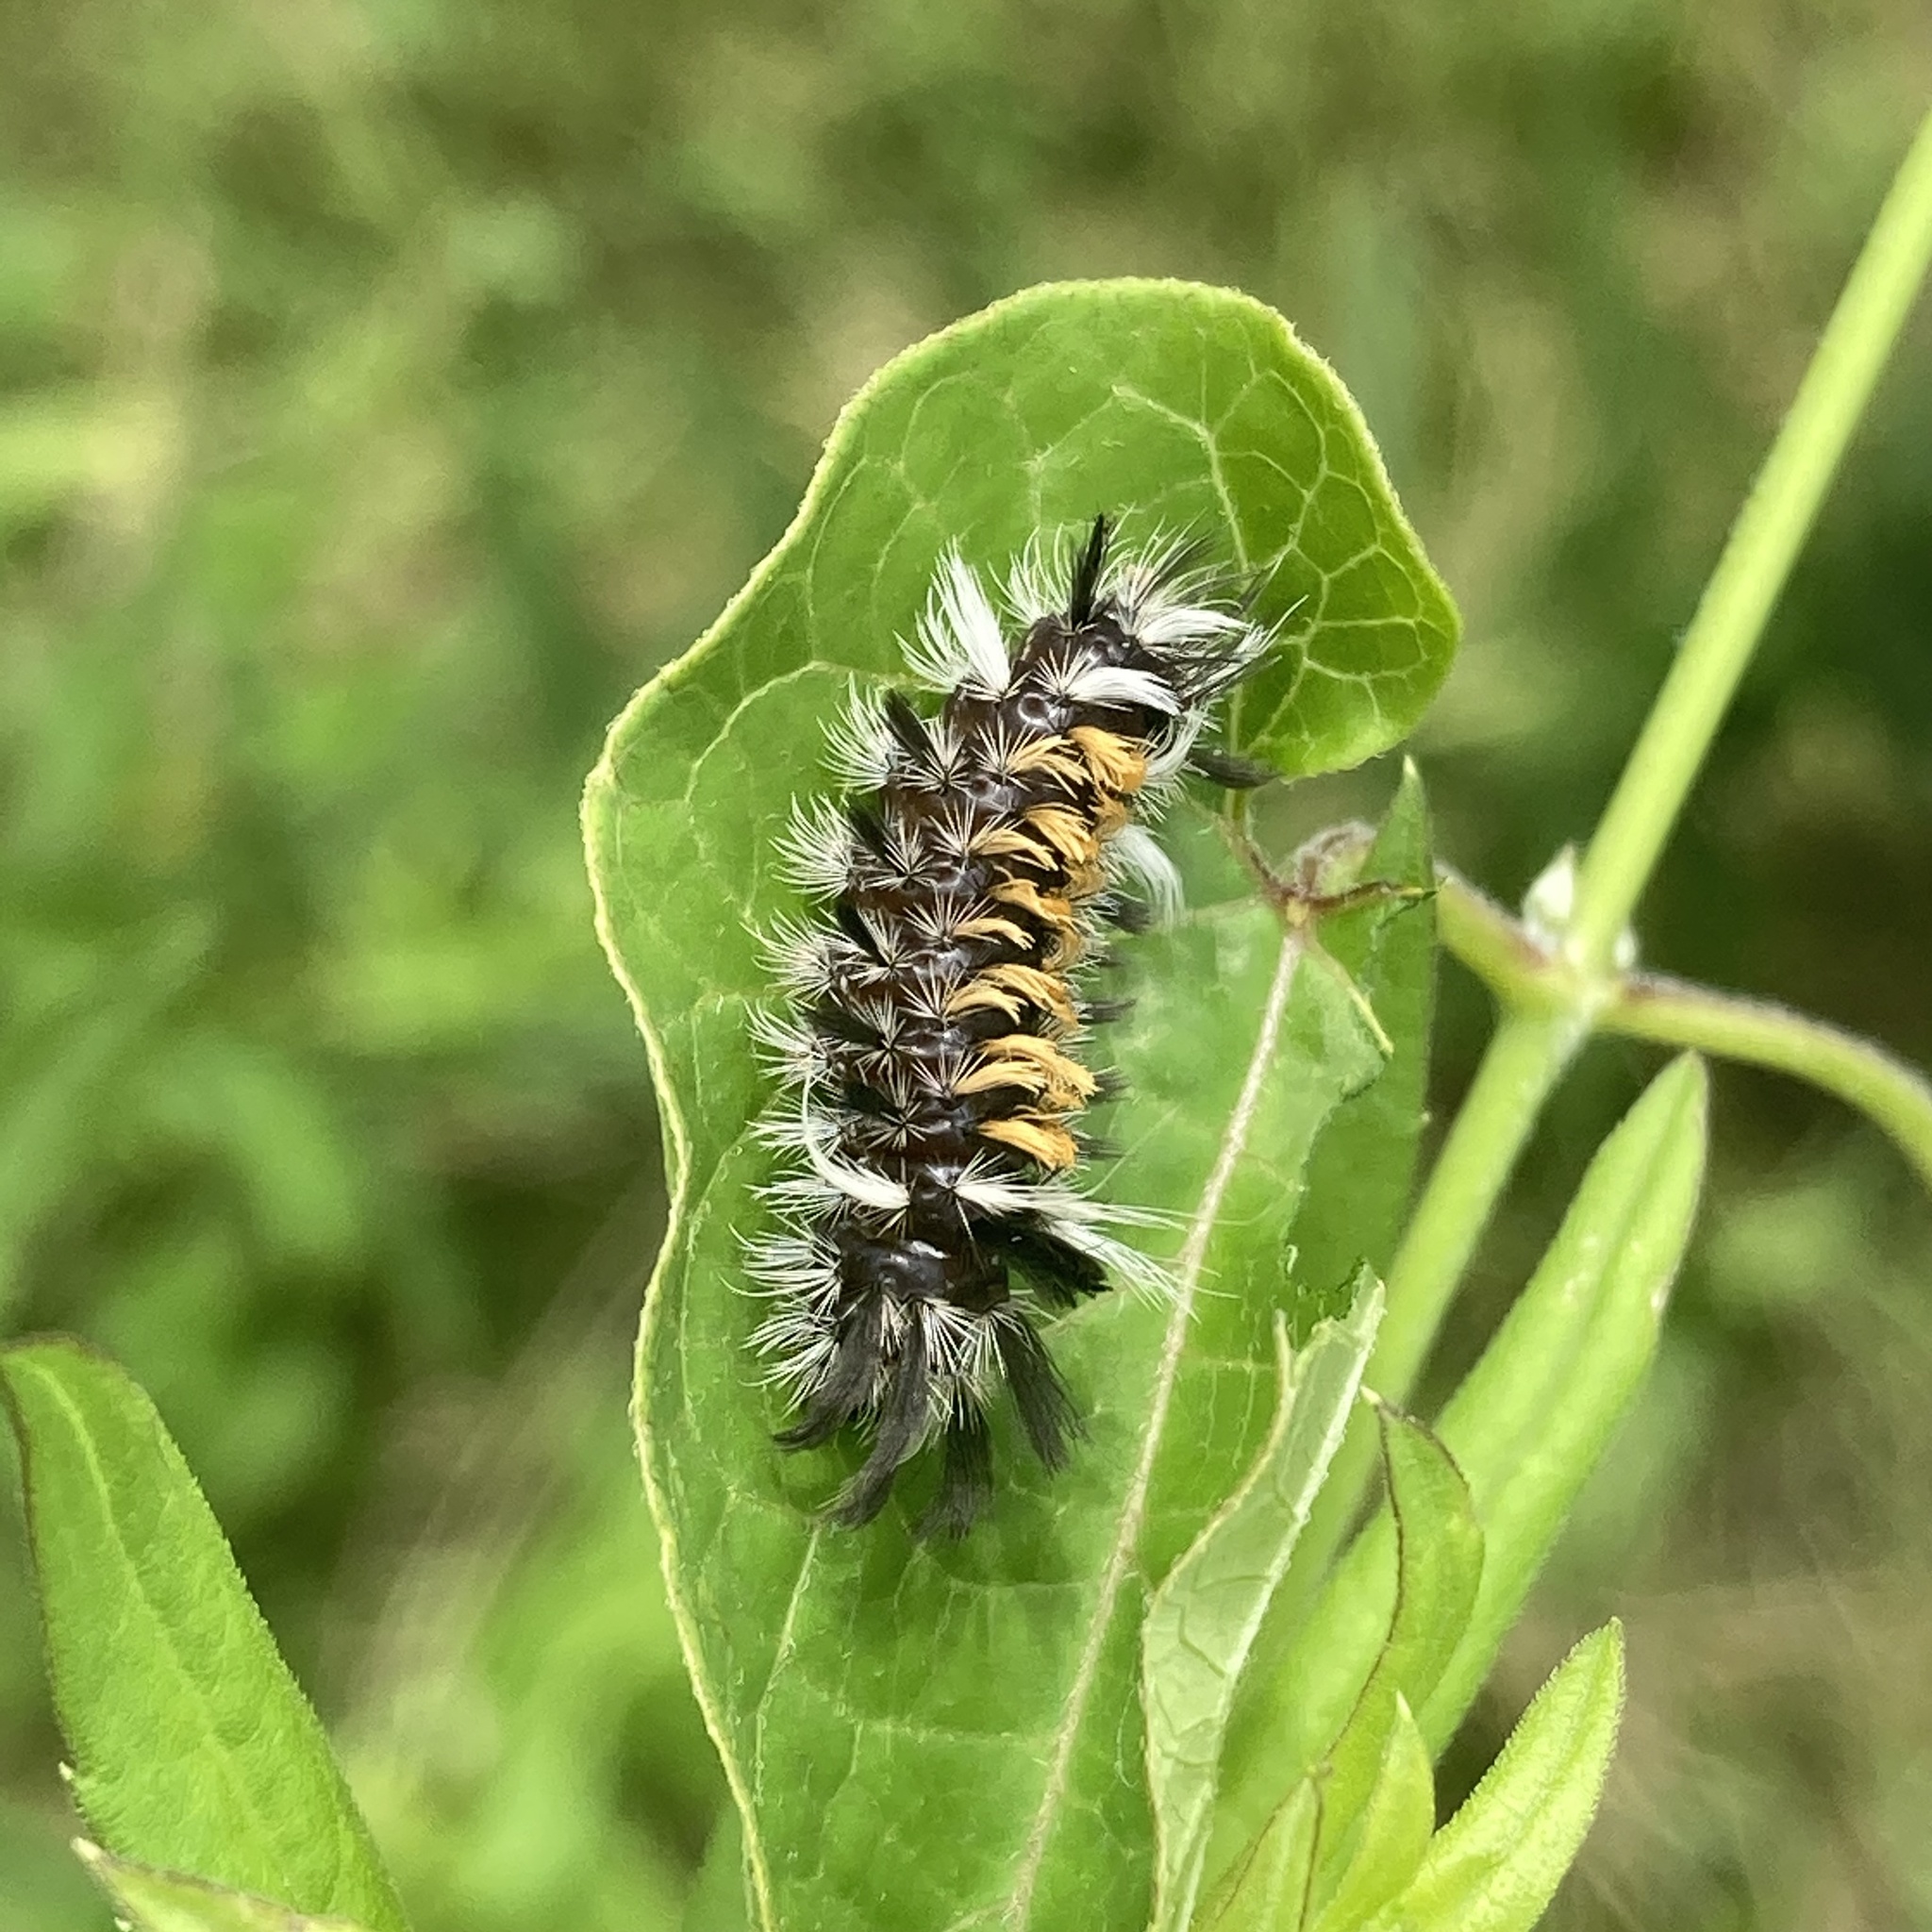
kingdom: Animalia
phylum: Arthropoda
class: Insecta
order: Lepidoptera
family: Erebidae
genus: Euchaetes
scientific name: Euchaetes egle
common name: Milkweed tussock moth
